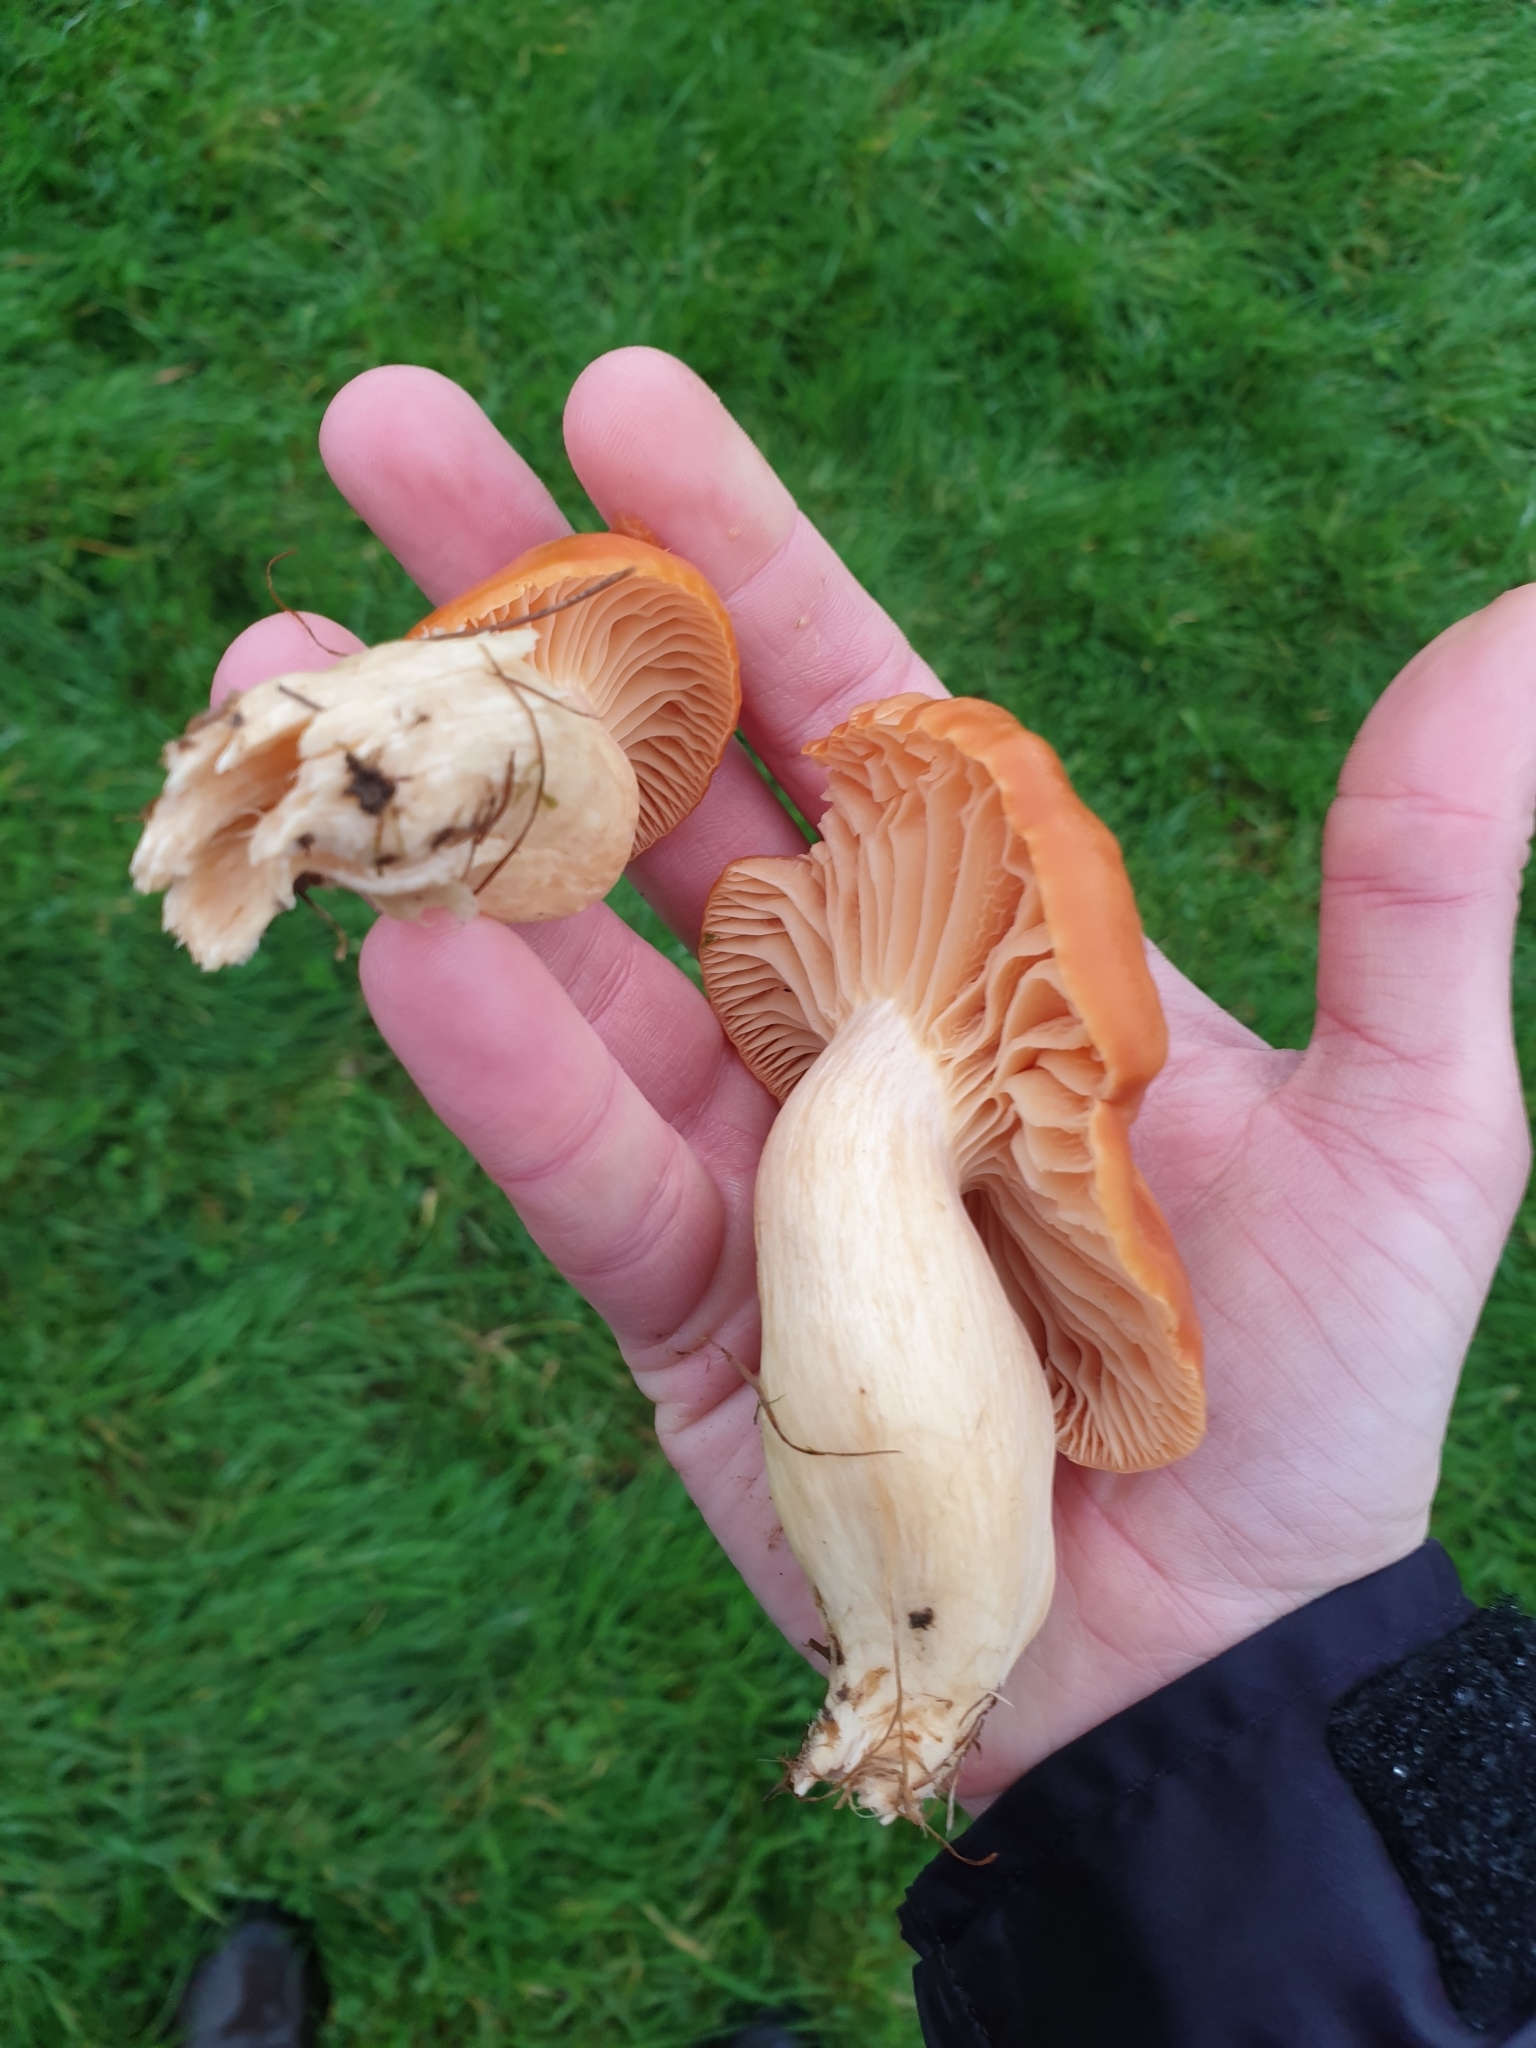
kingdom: Fungi
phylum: Basidiomycota
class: Agaricomycetes
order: Agaricales
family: Hygrophoraceae
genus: Cuphophyllus
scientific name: Cuphophyllus pratensis
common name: Meadow waxcap
